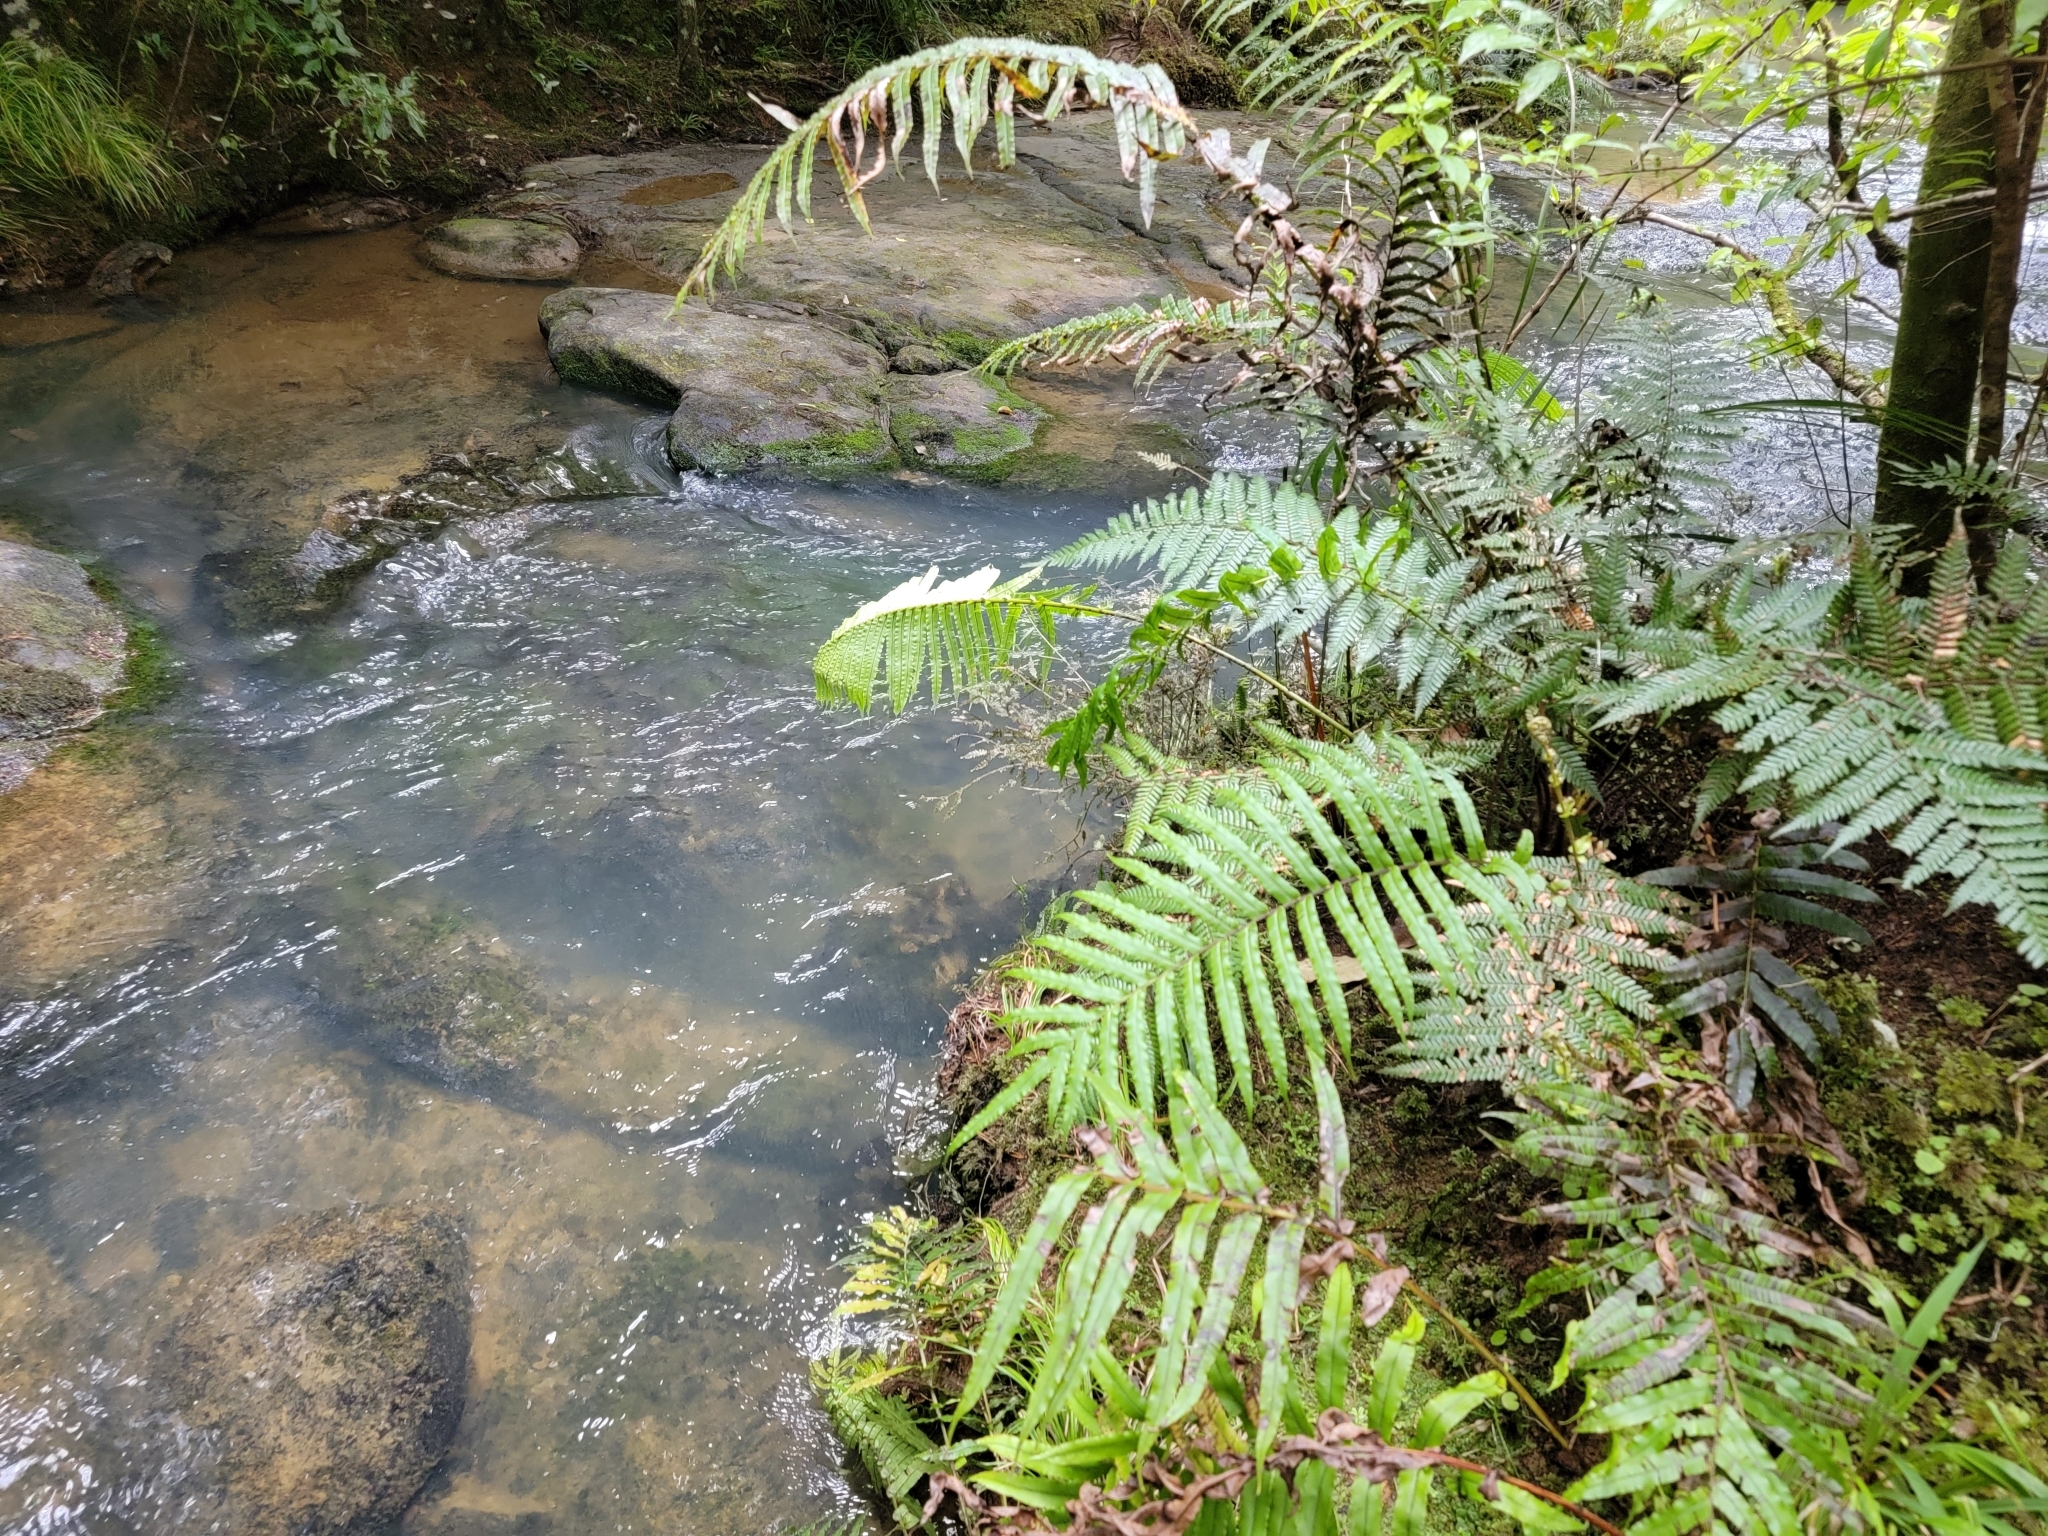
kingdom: Plantae
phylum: Tracheophyta
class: Polypodiopsida
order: Polypodiales
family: Blechnaceae
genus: Parablechnum
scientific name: Parablechnum minus
